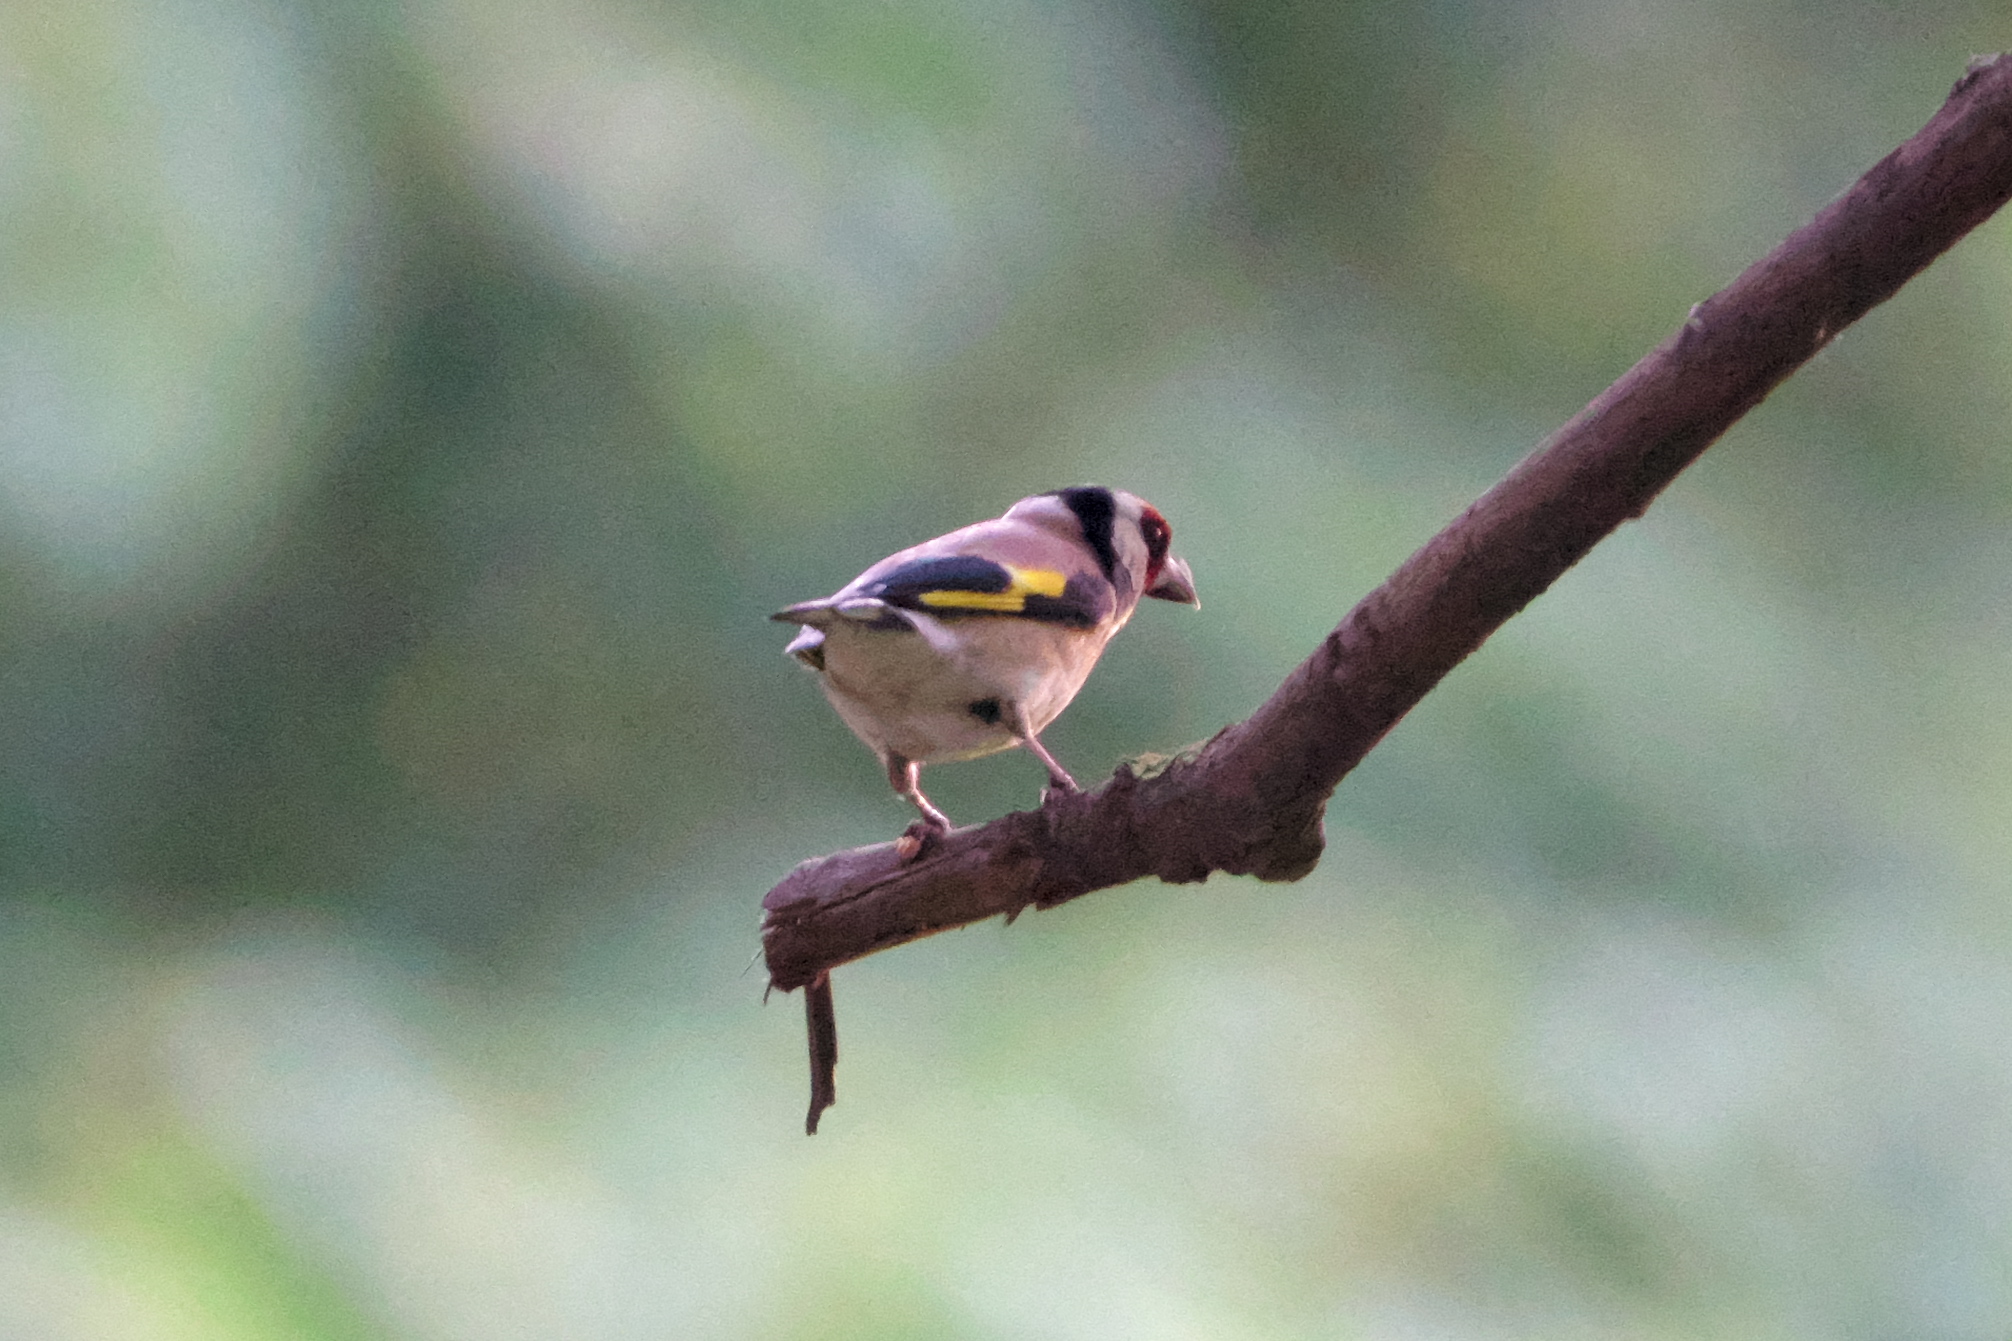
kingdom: Animalia
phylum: Chordata
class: Aves
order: Passeriformes
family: Fringillidae
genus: Carduelis
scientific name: Carduelis carduelis
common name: European goldfinch
